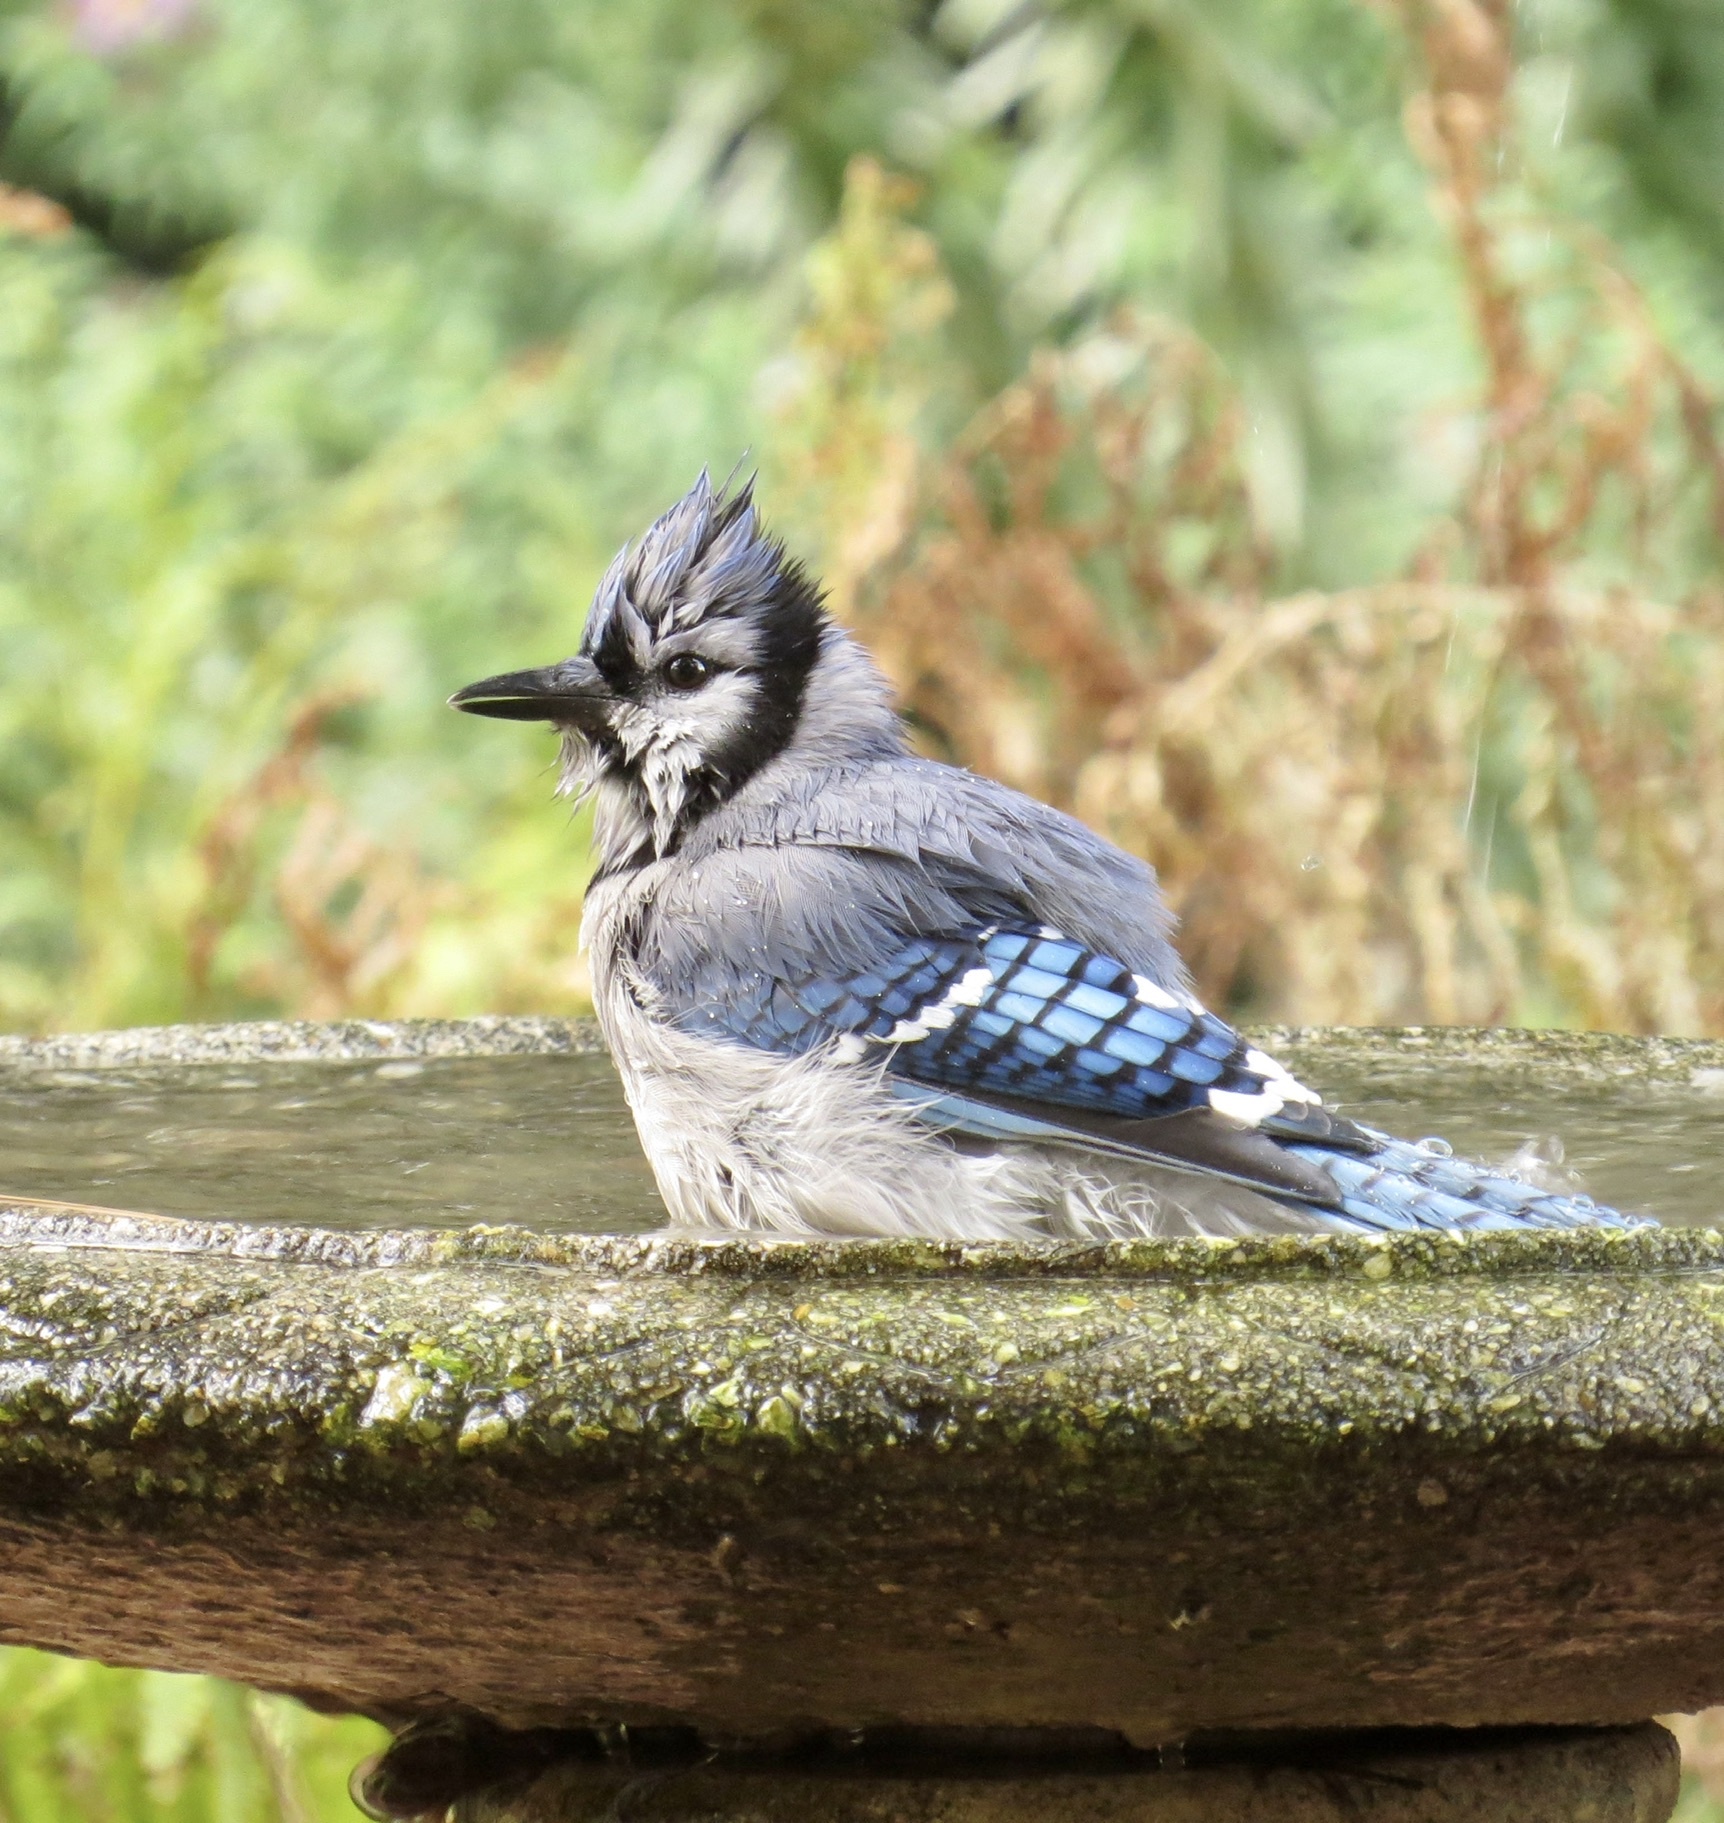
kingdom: Animalia
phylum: Chordata
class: Aves
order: Passeriformes
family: Corvidae
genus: Cyanocitta
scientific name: Cyanocitta cristata
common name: Blue jay
